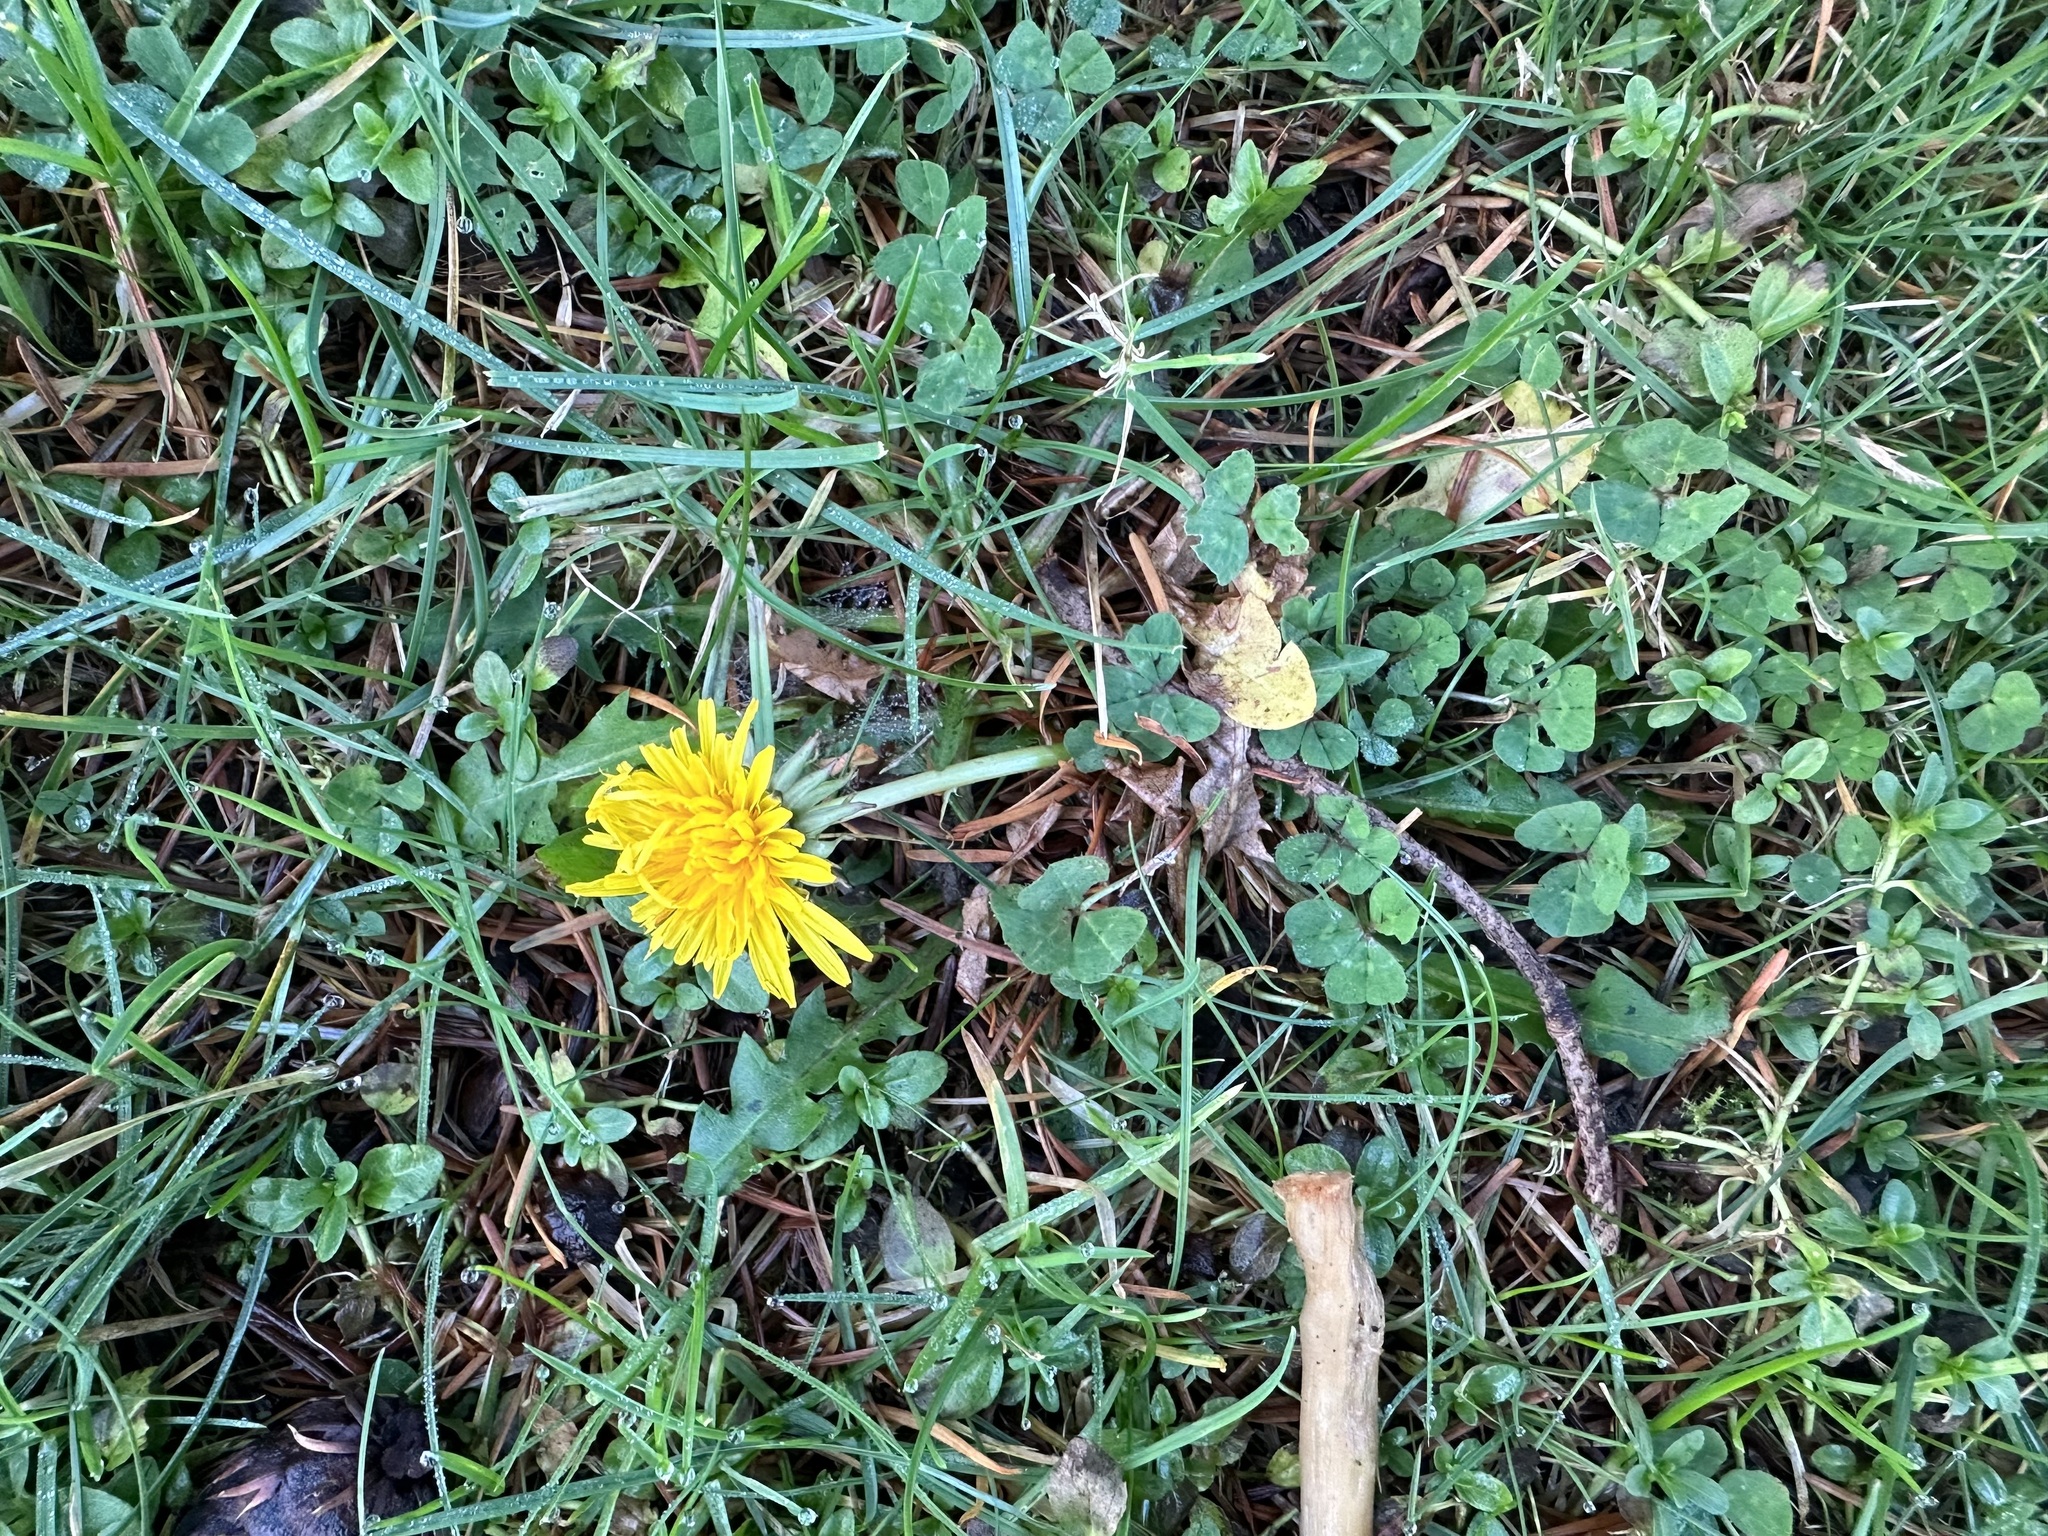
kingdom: Plantae
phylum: Tracheophyta
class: Magnoliopsida
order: Asterales
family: Asteraceae
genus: Taraxacum
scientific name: Taraxacum officinale
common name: Common dandelion
